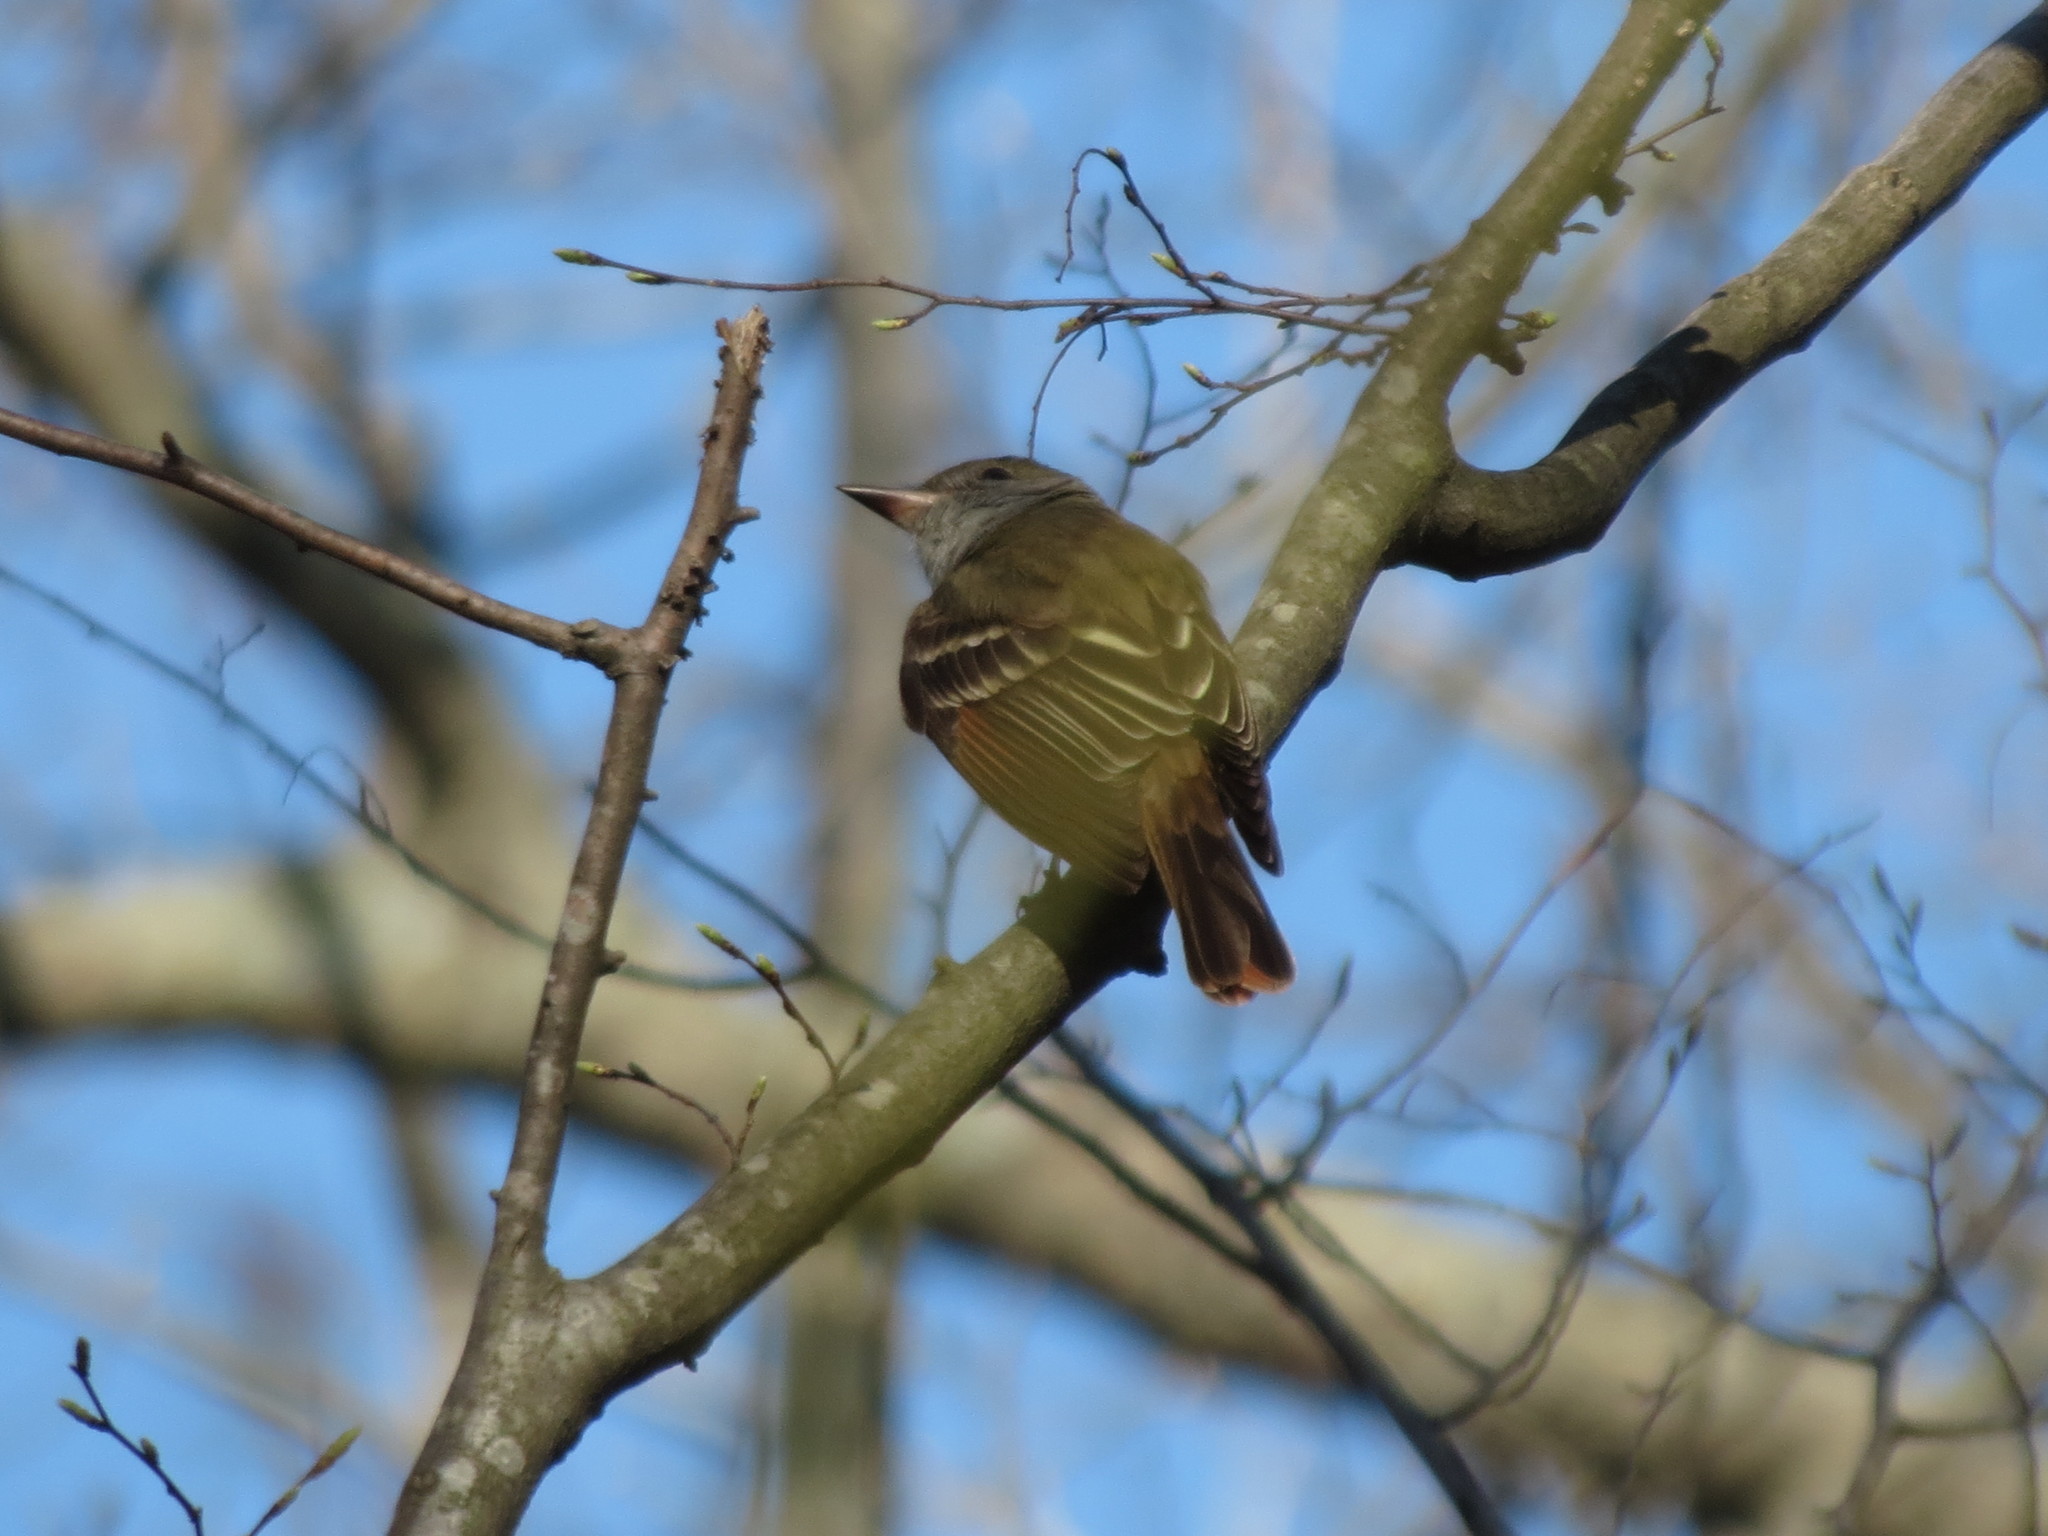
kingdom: Animalia
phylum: Chordata
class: Aves
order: Passeriformes
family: Tyrannidae
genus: Myiarchus
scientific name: Myiarchus crinitus
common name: Great crested flycatcher
